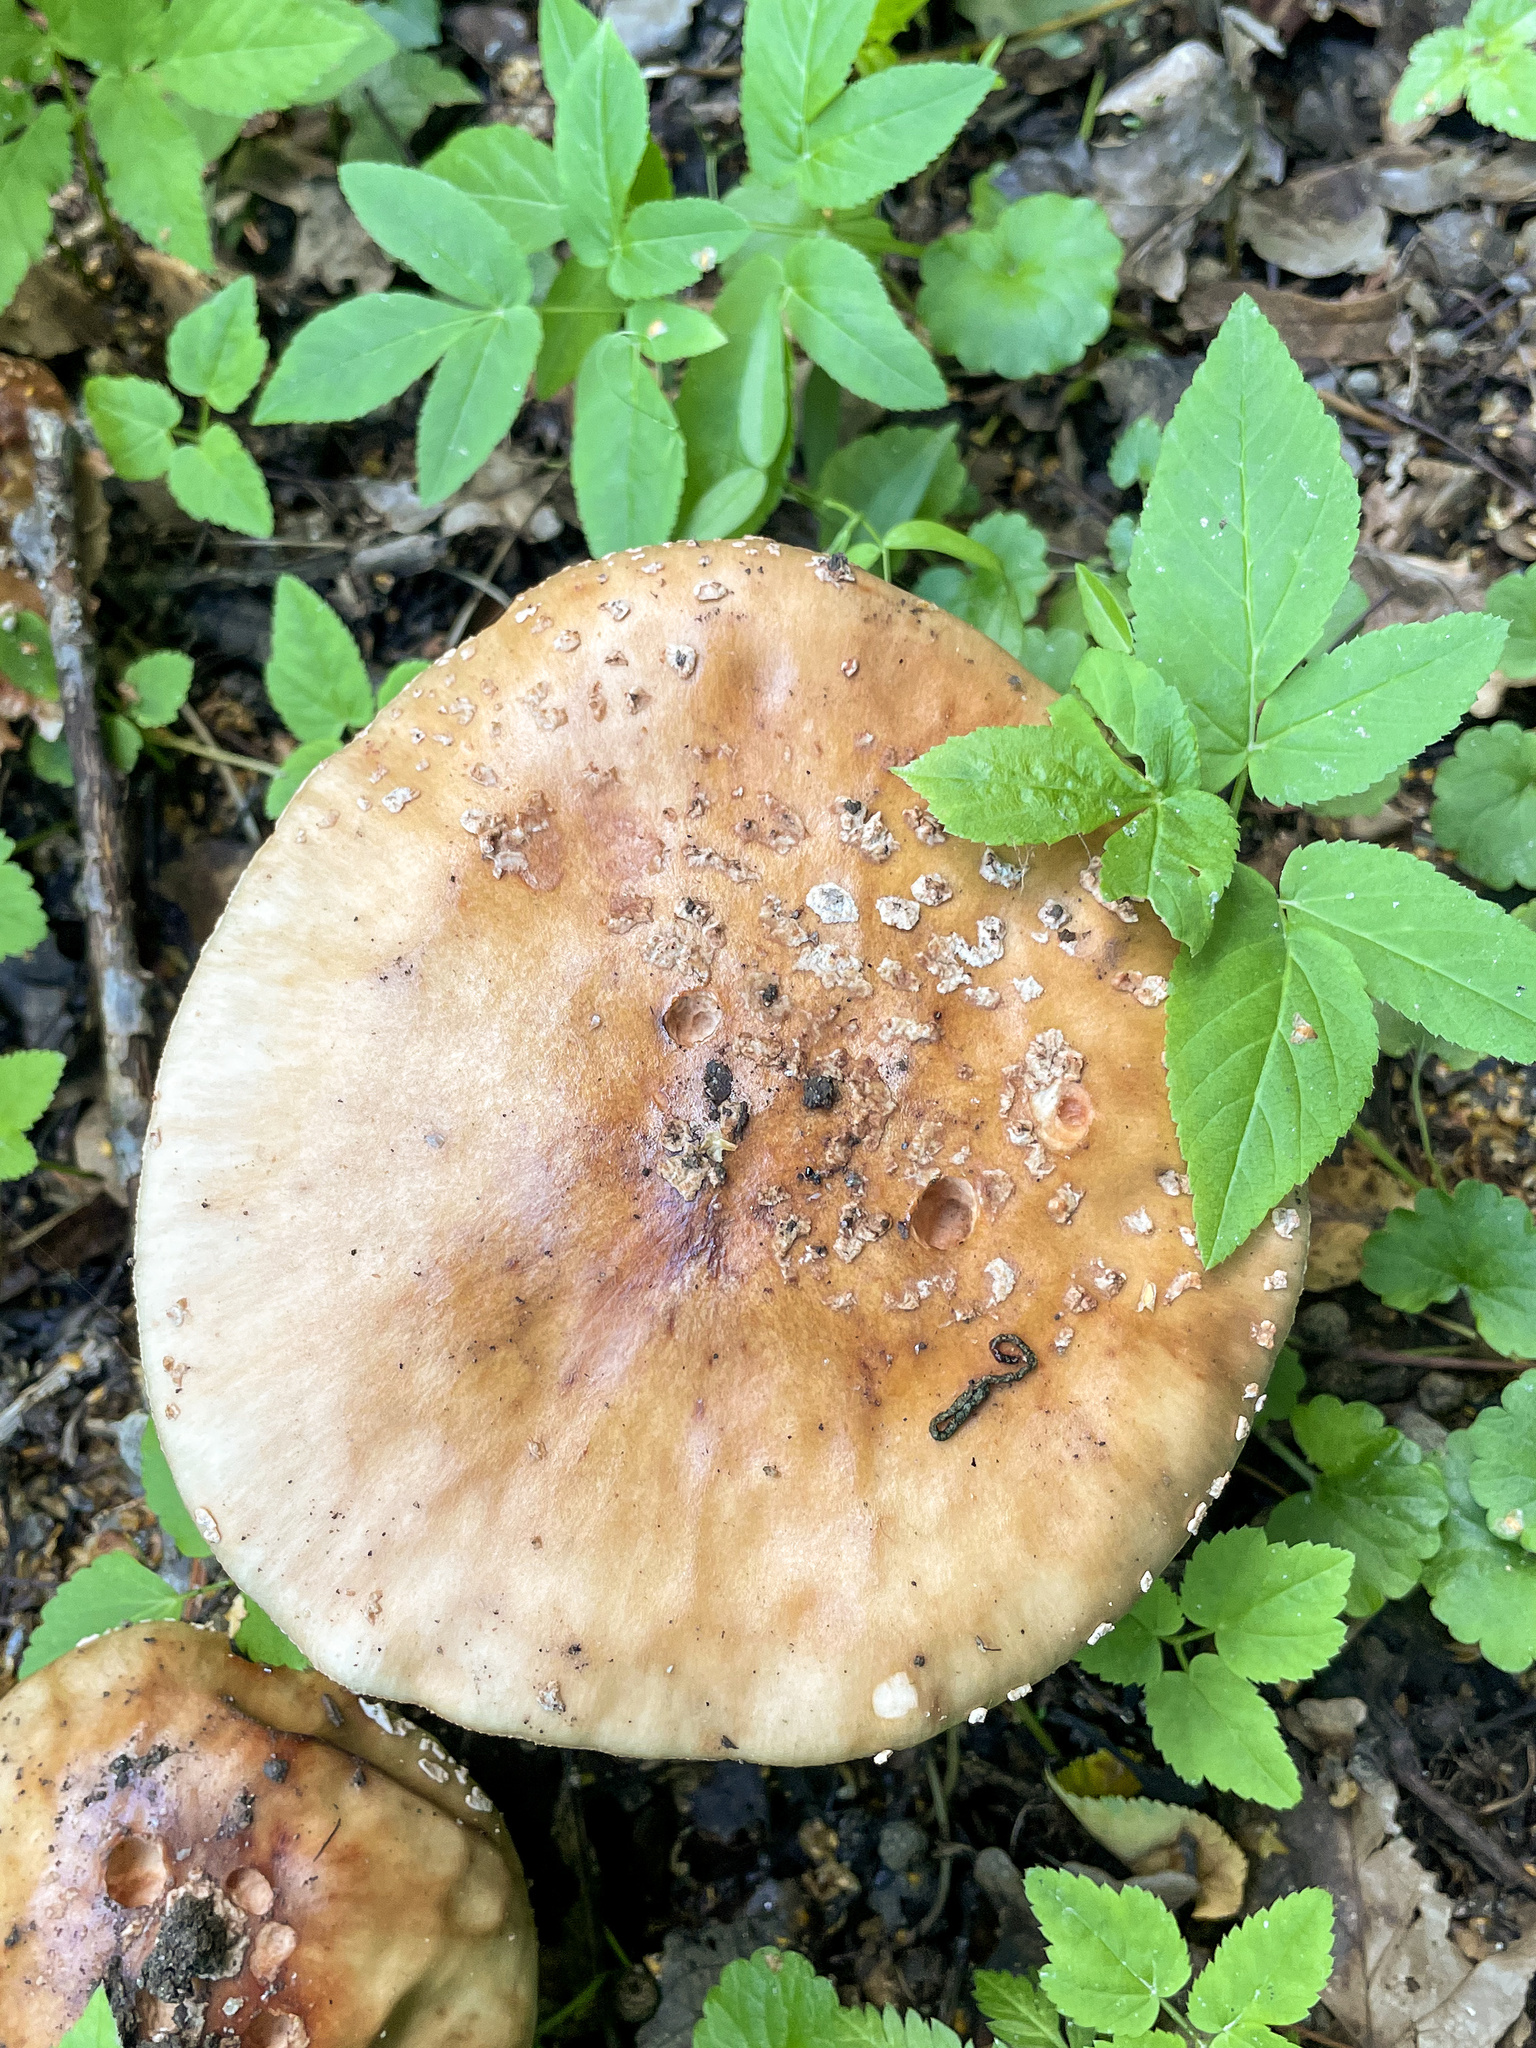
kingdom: Fungi
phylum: Basidiomycota
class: Agaricomycetes
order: Agaricales
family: Amanitaceae
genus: Amanita
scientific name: Amanita rubescens
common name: Blusher
